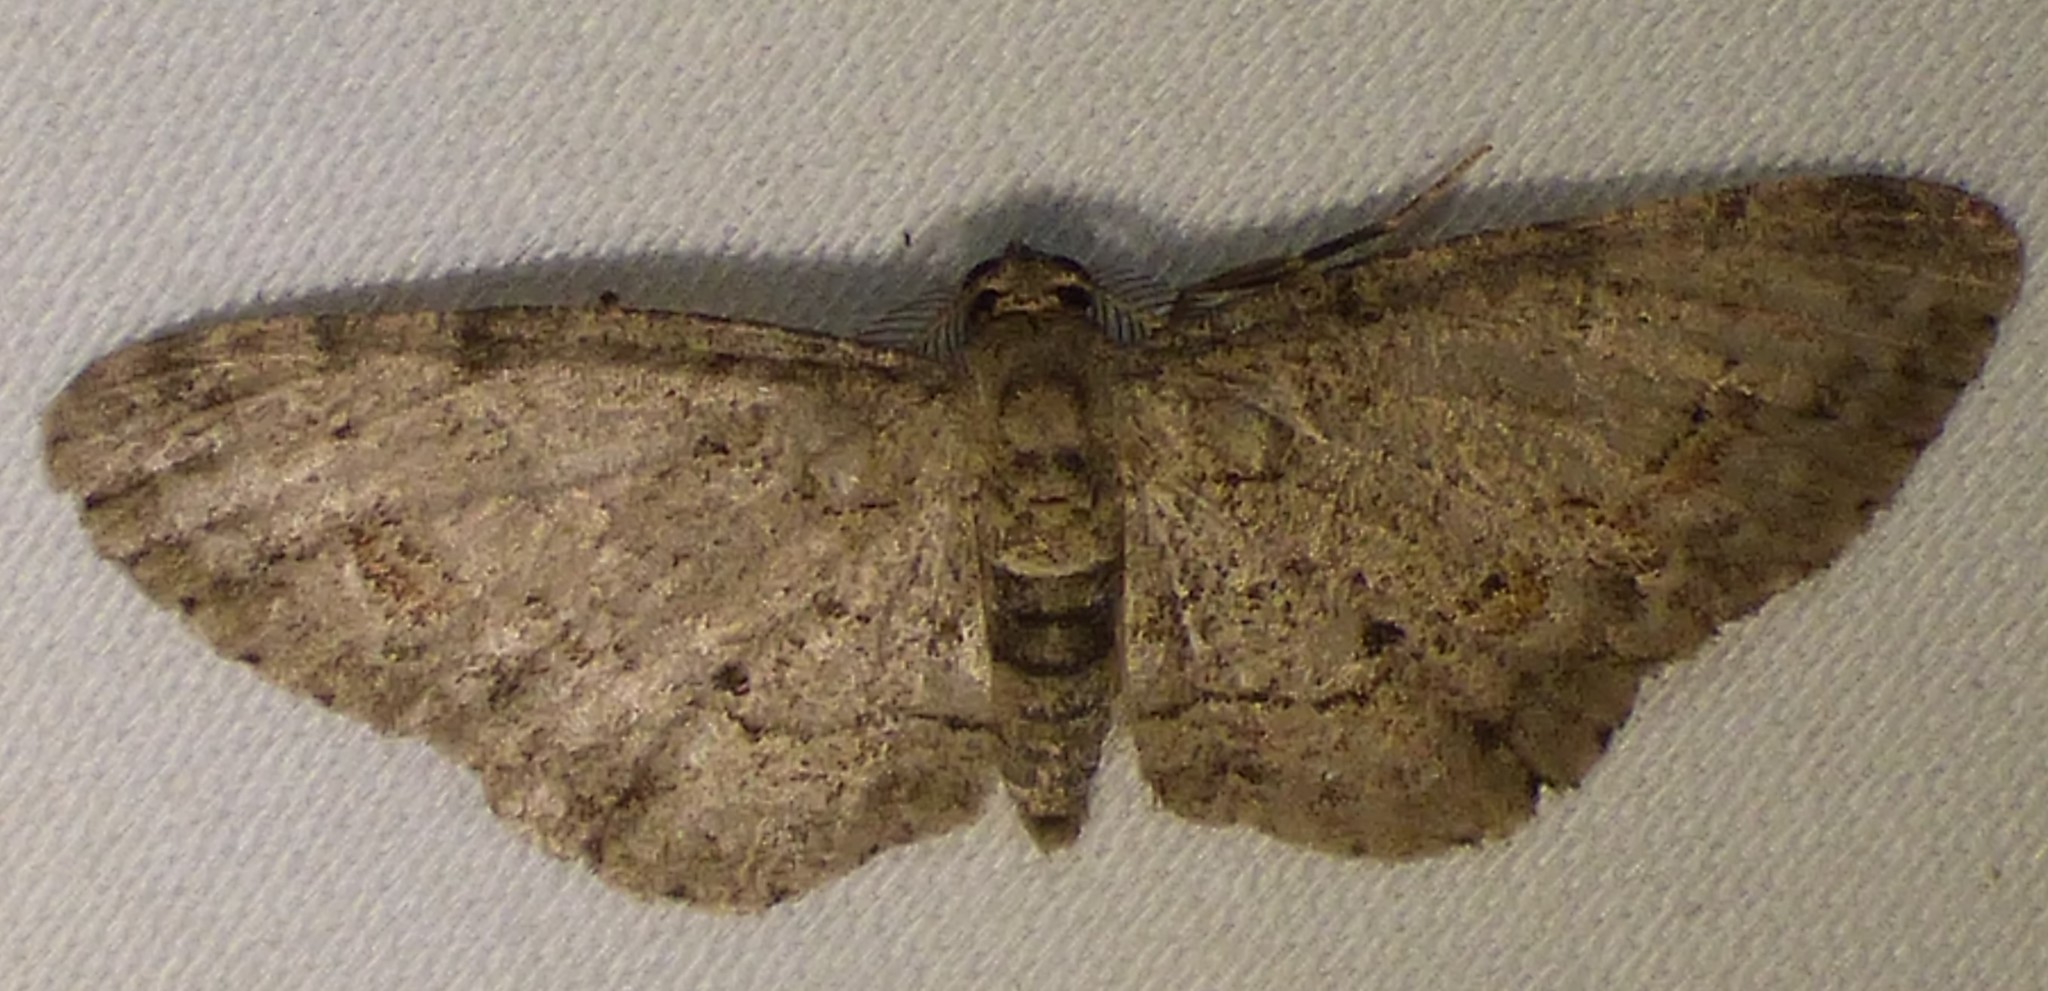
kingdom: Animalia
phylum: Arthropoda
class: Insecta
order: Lepidoptera
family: Geometridae
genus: Glenoides
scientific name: Glenoides texanaria
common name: Texas gray
